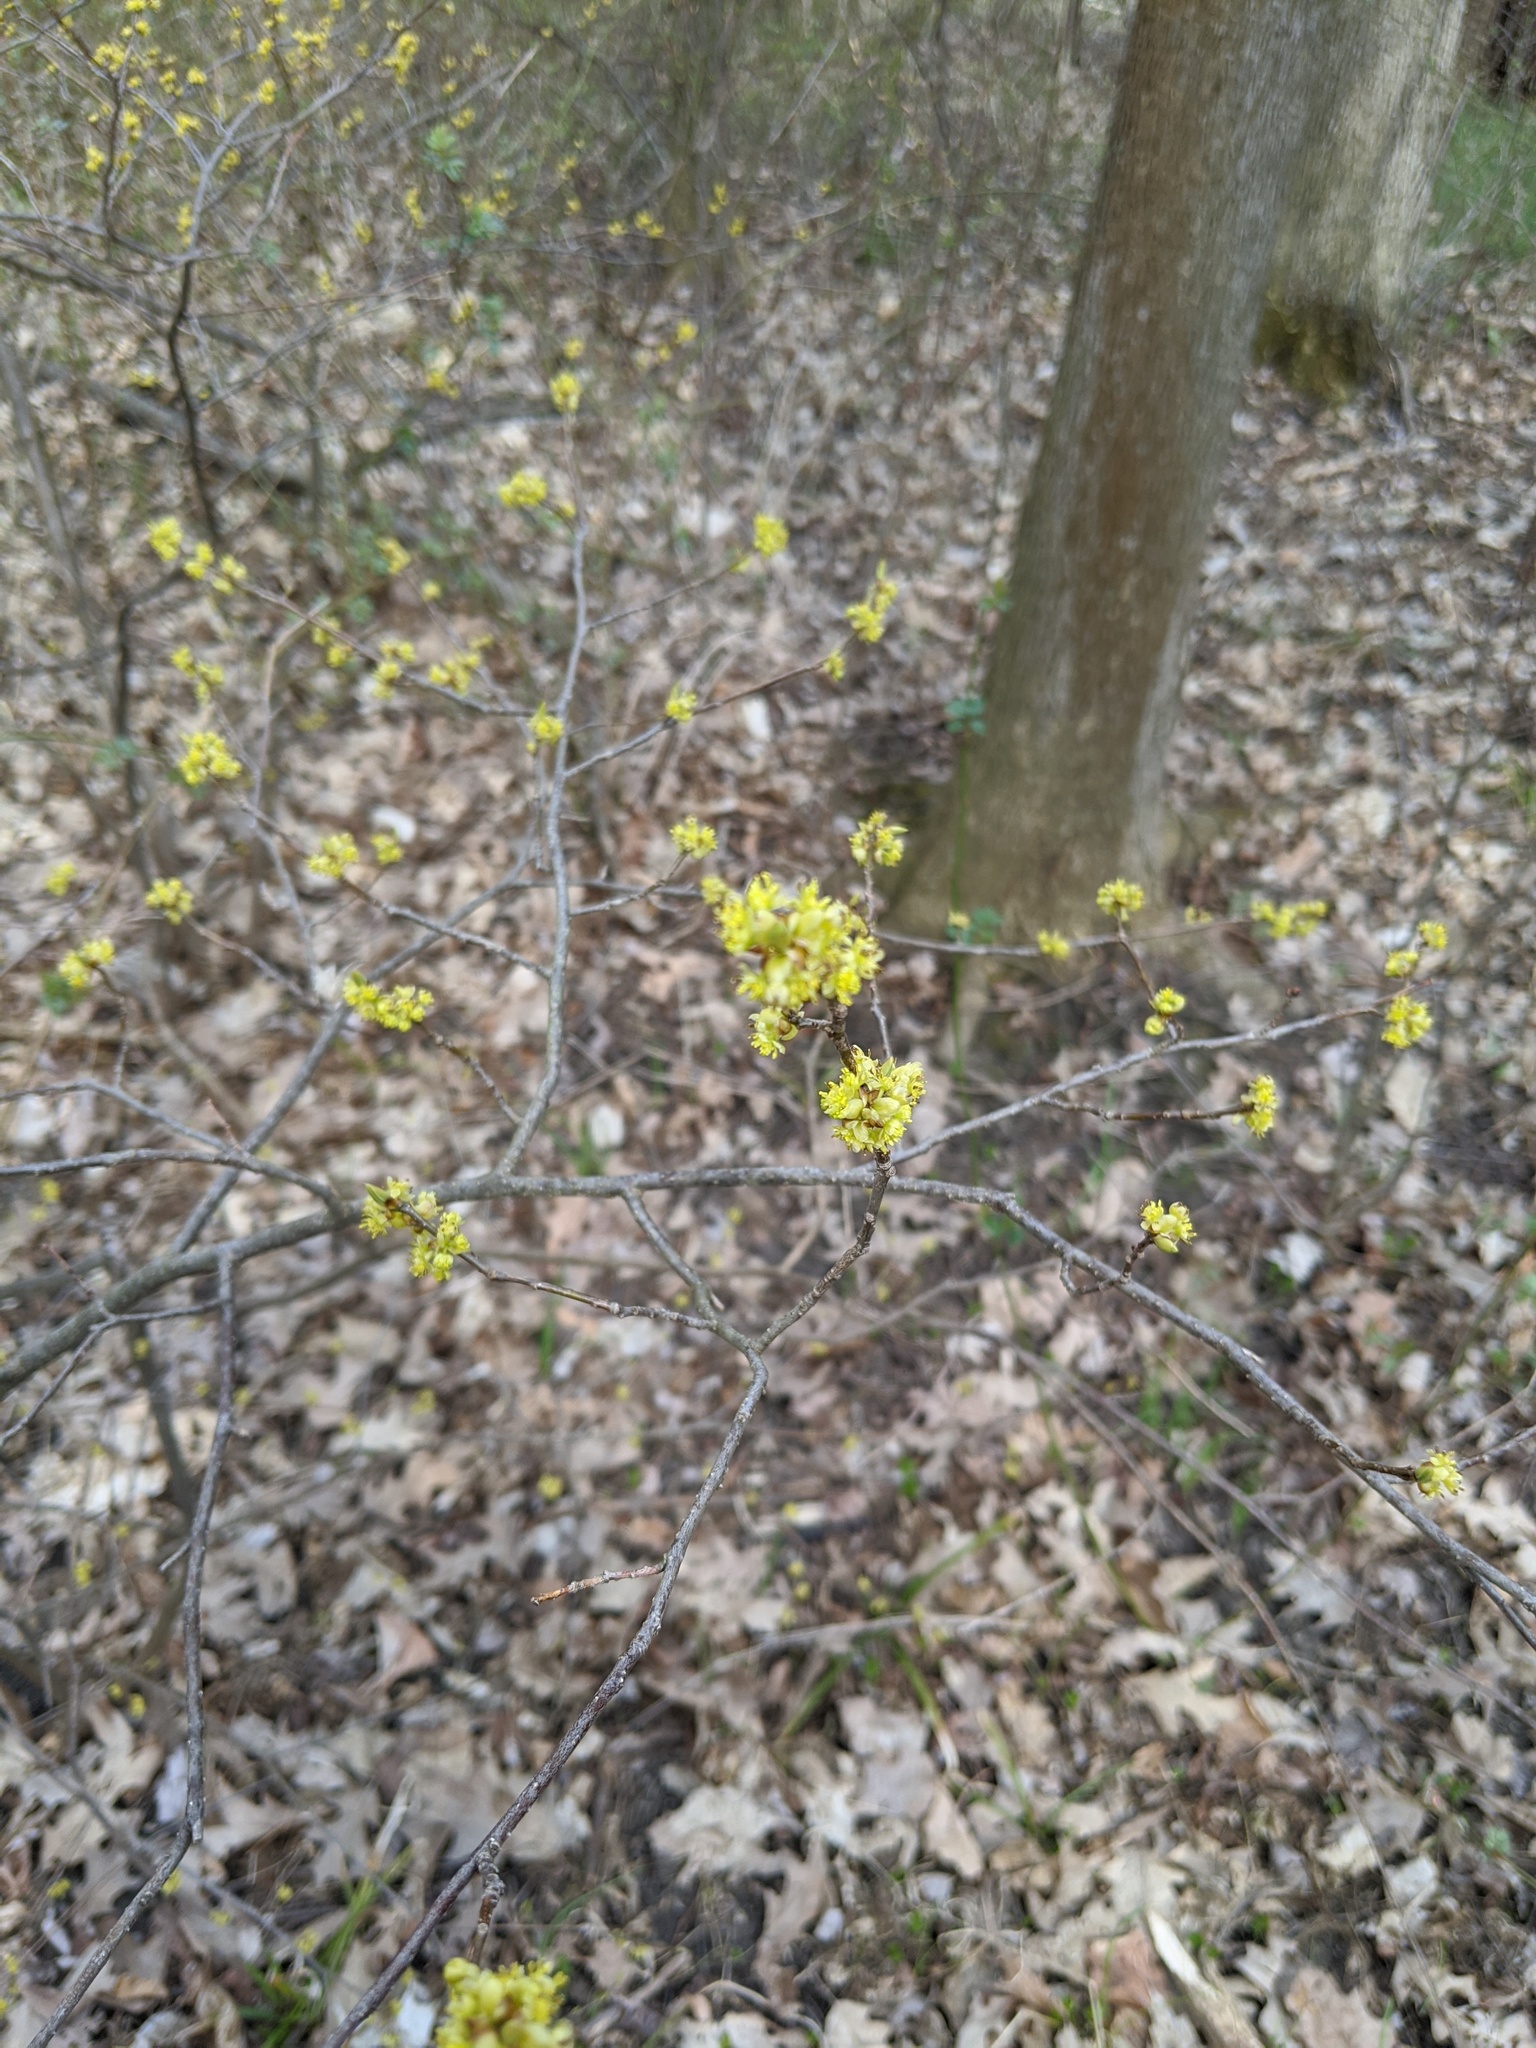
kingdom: Plantae
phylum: Tracheophyta
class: Magnoliopsida
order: Laurales
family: Lauraceae
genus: Lindera
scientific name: Lindera benzoin
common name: Spicebush
